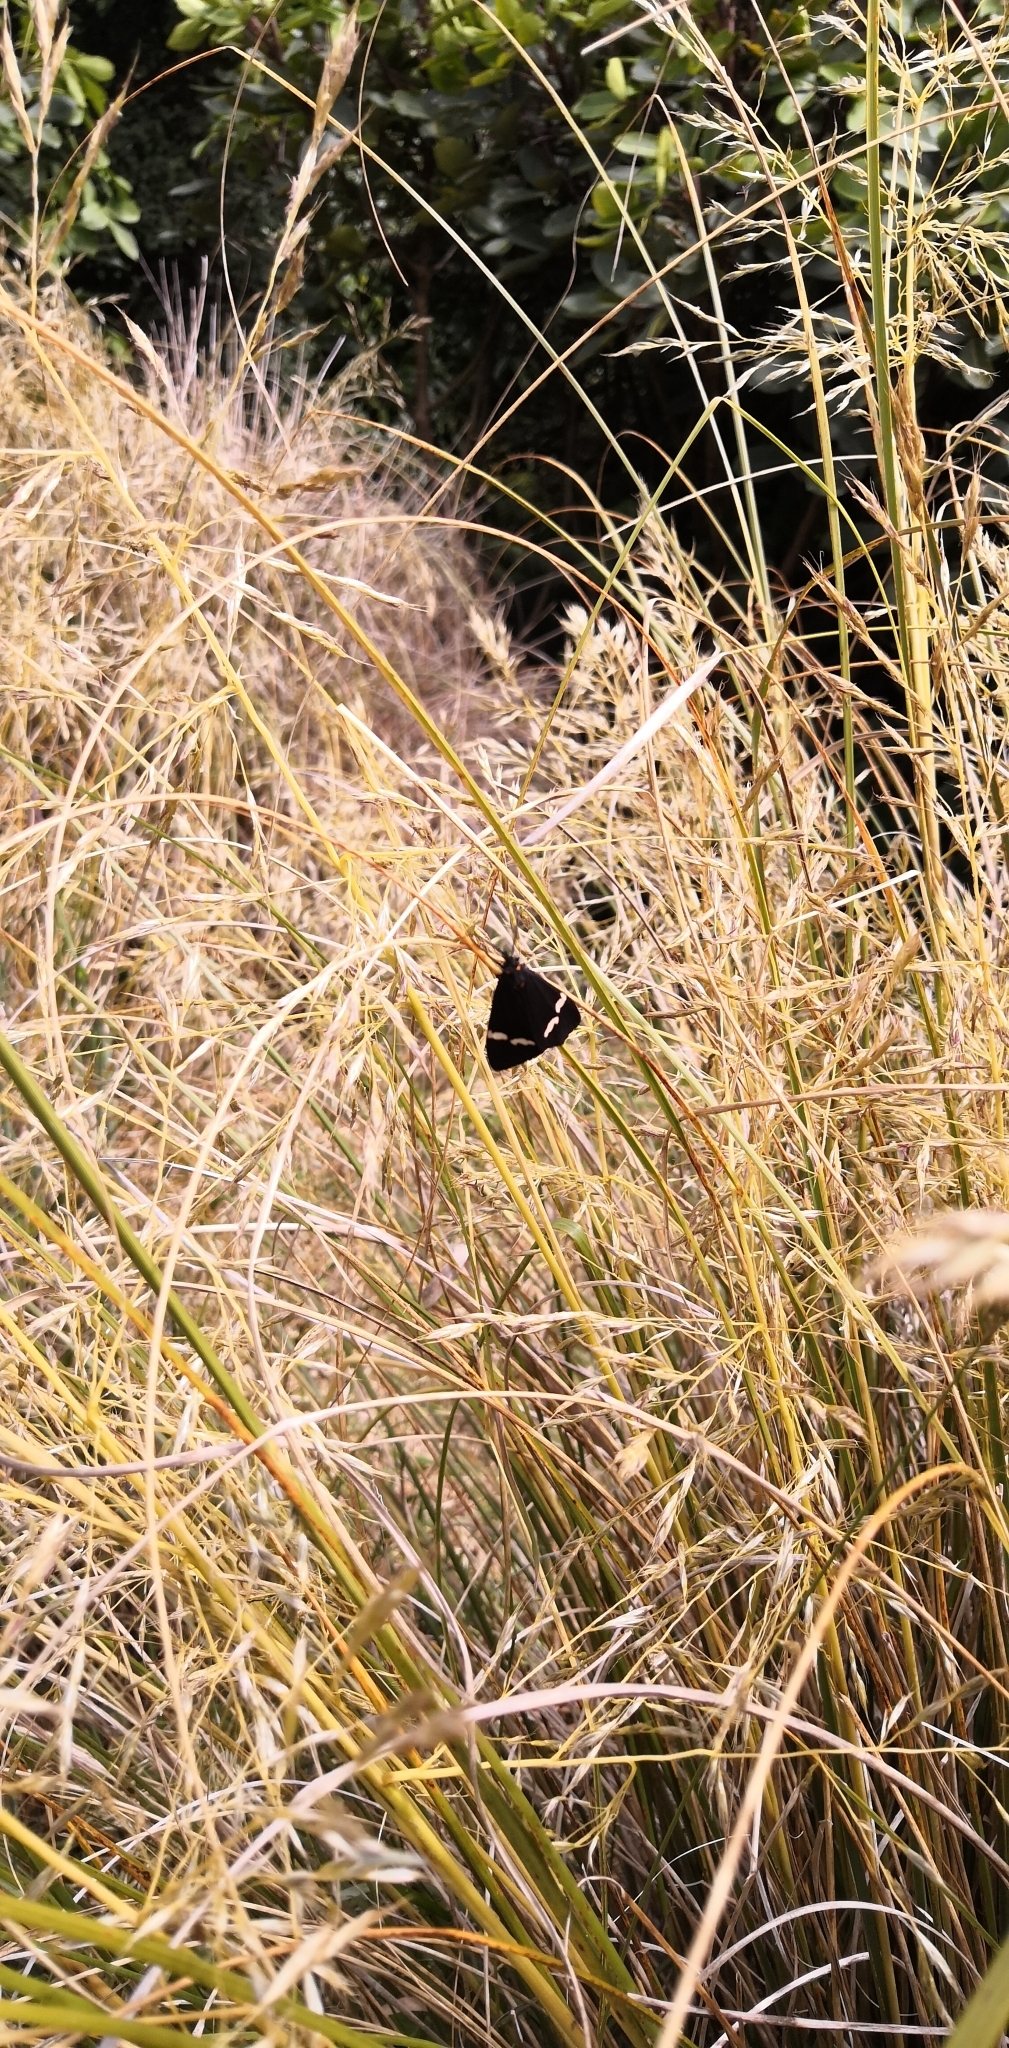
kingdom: Animalia
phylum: Arthropoda
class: Insecta
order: Lepidoptera
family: Erebidae
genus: Nyctemera
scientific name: Nyctemera annulatum
